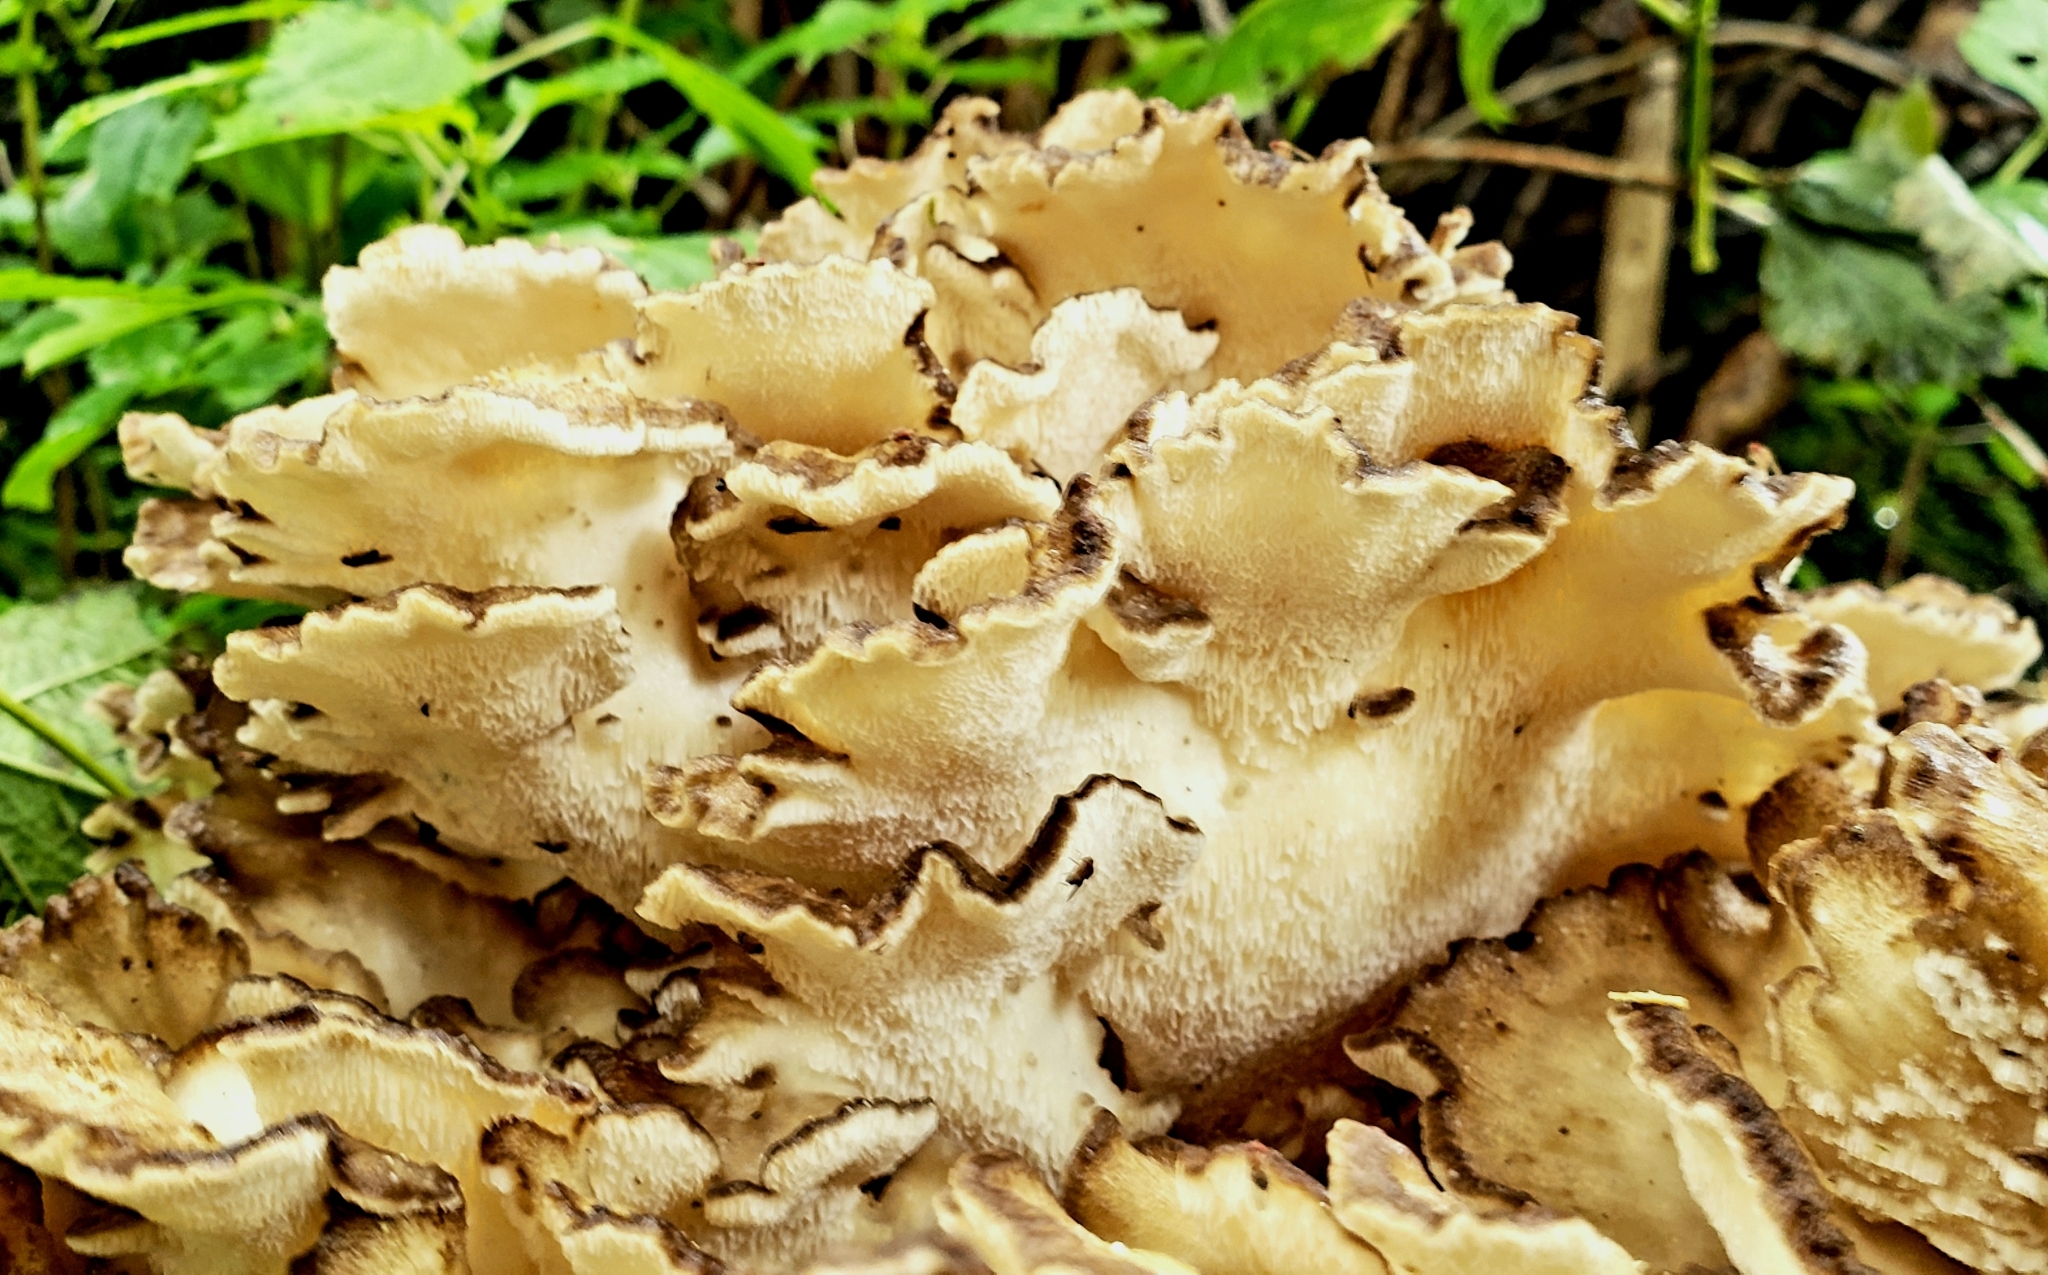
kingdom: Fungi
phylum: Basidiomycota
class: Agaricomycetes
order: Polyporales
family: Grifolaceae
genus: Grifola
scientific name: Grifola frondosa
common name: Hen of the woods
